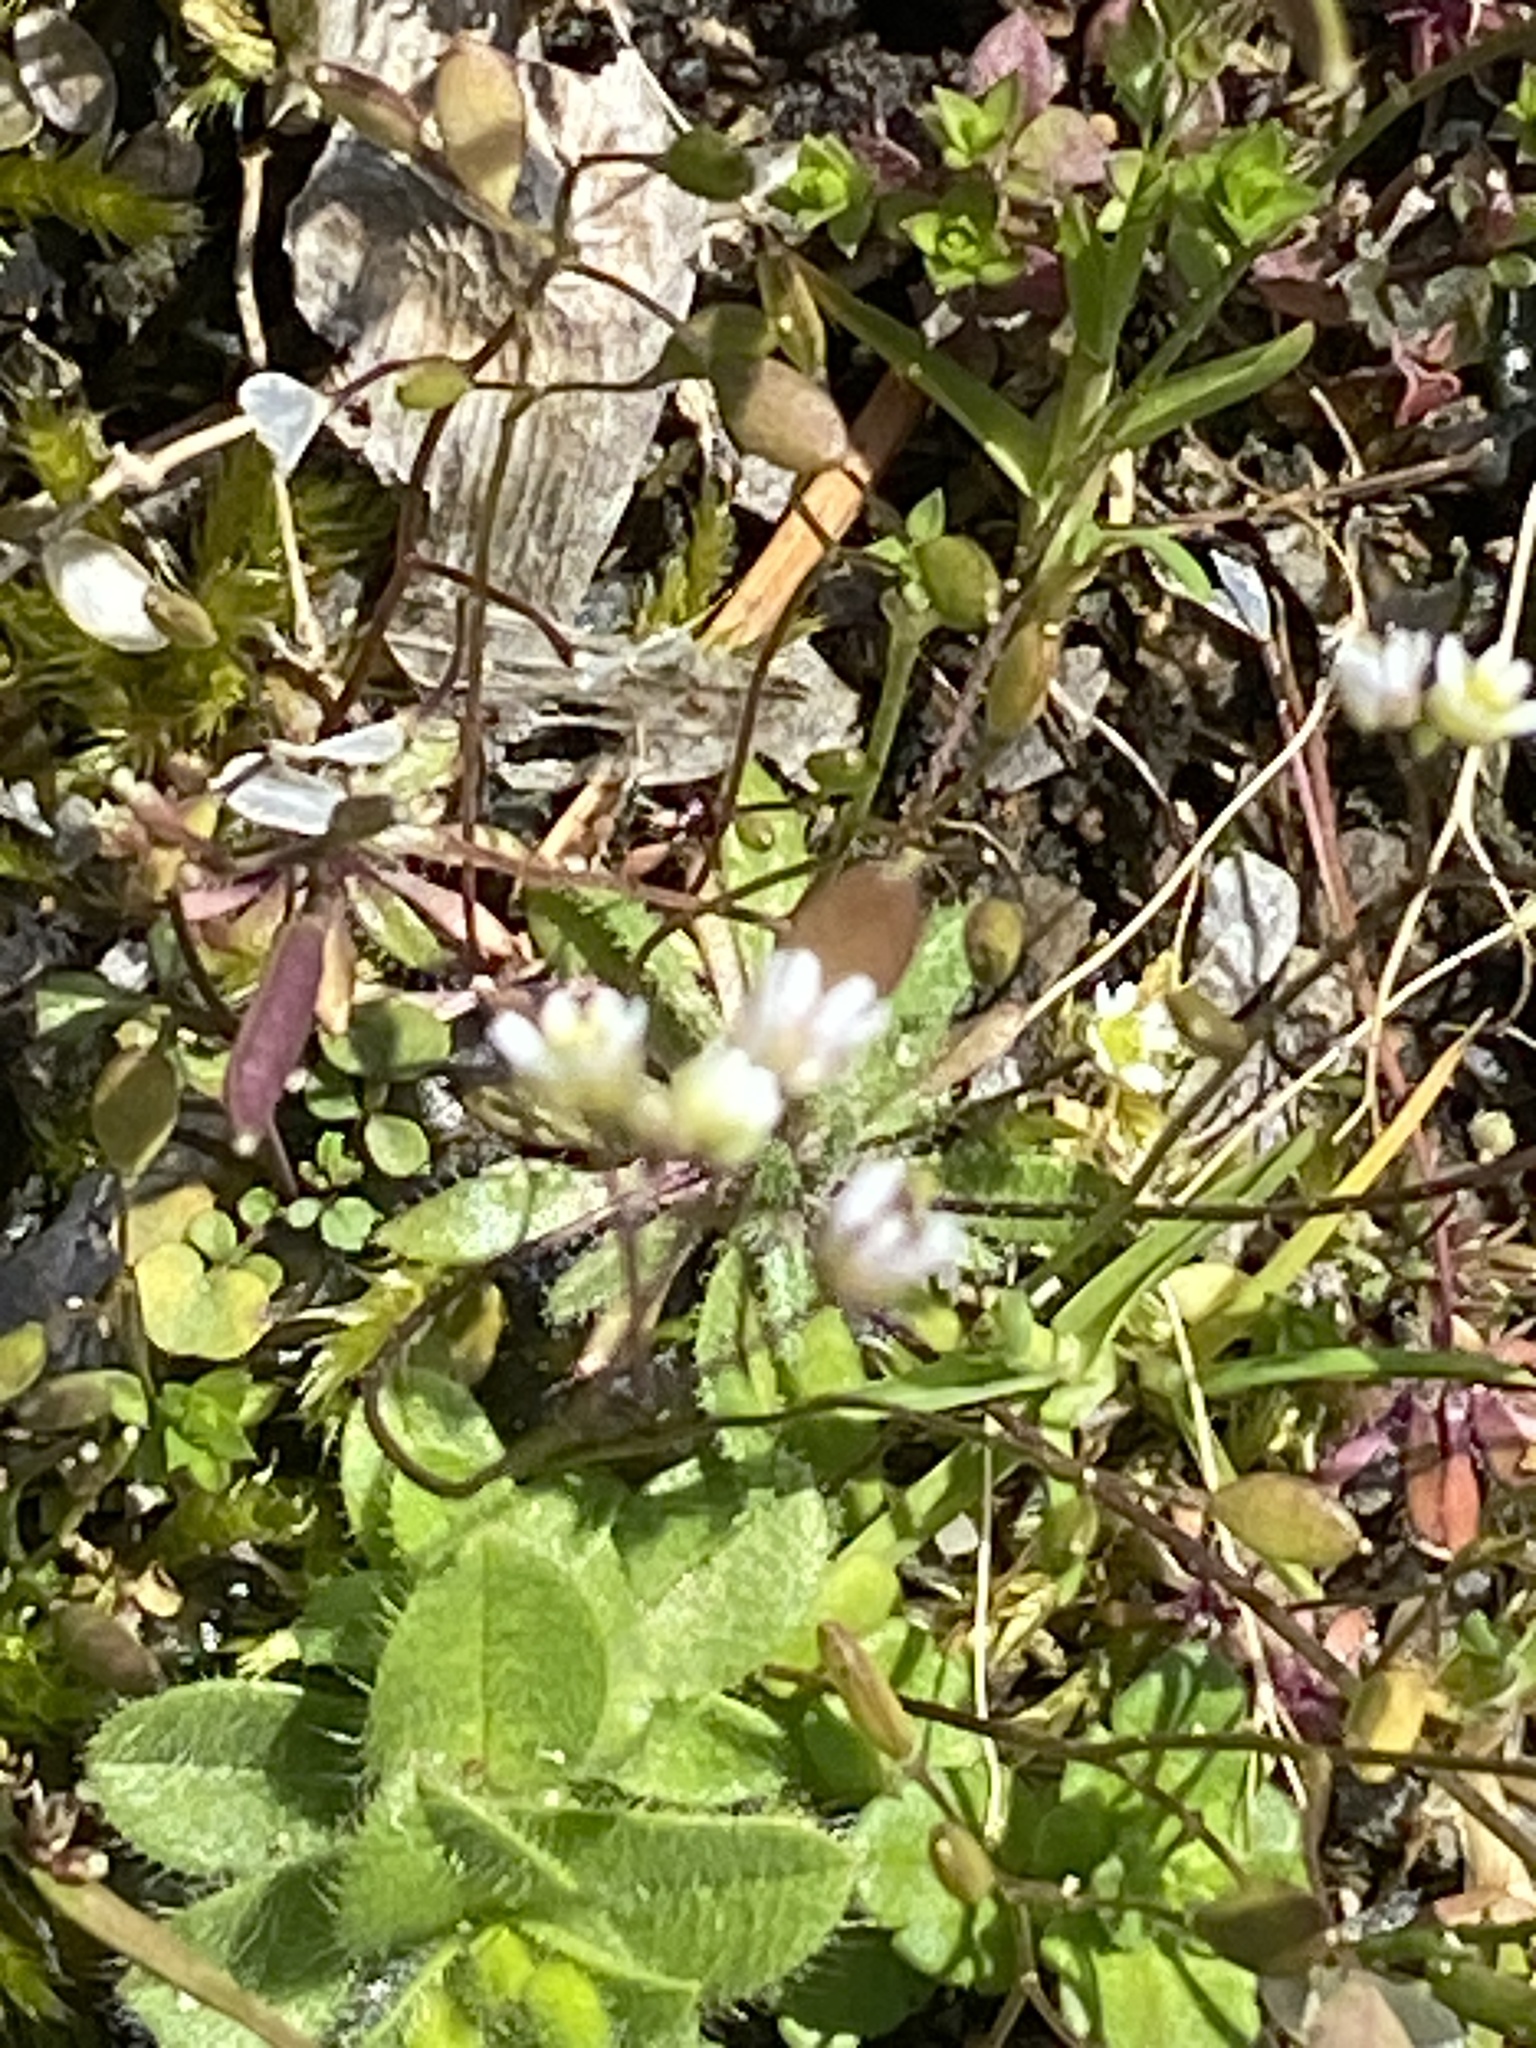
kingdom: Plantae
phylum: Tracheophyta
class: Magnoliopsida
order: Brassicales
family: Brassicaceae
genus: Draba
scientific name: Draba verna
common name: Spring draba
